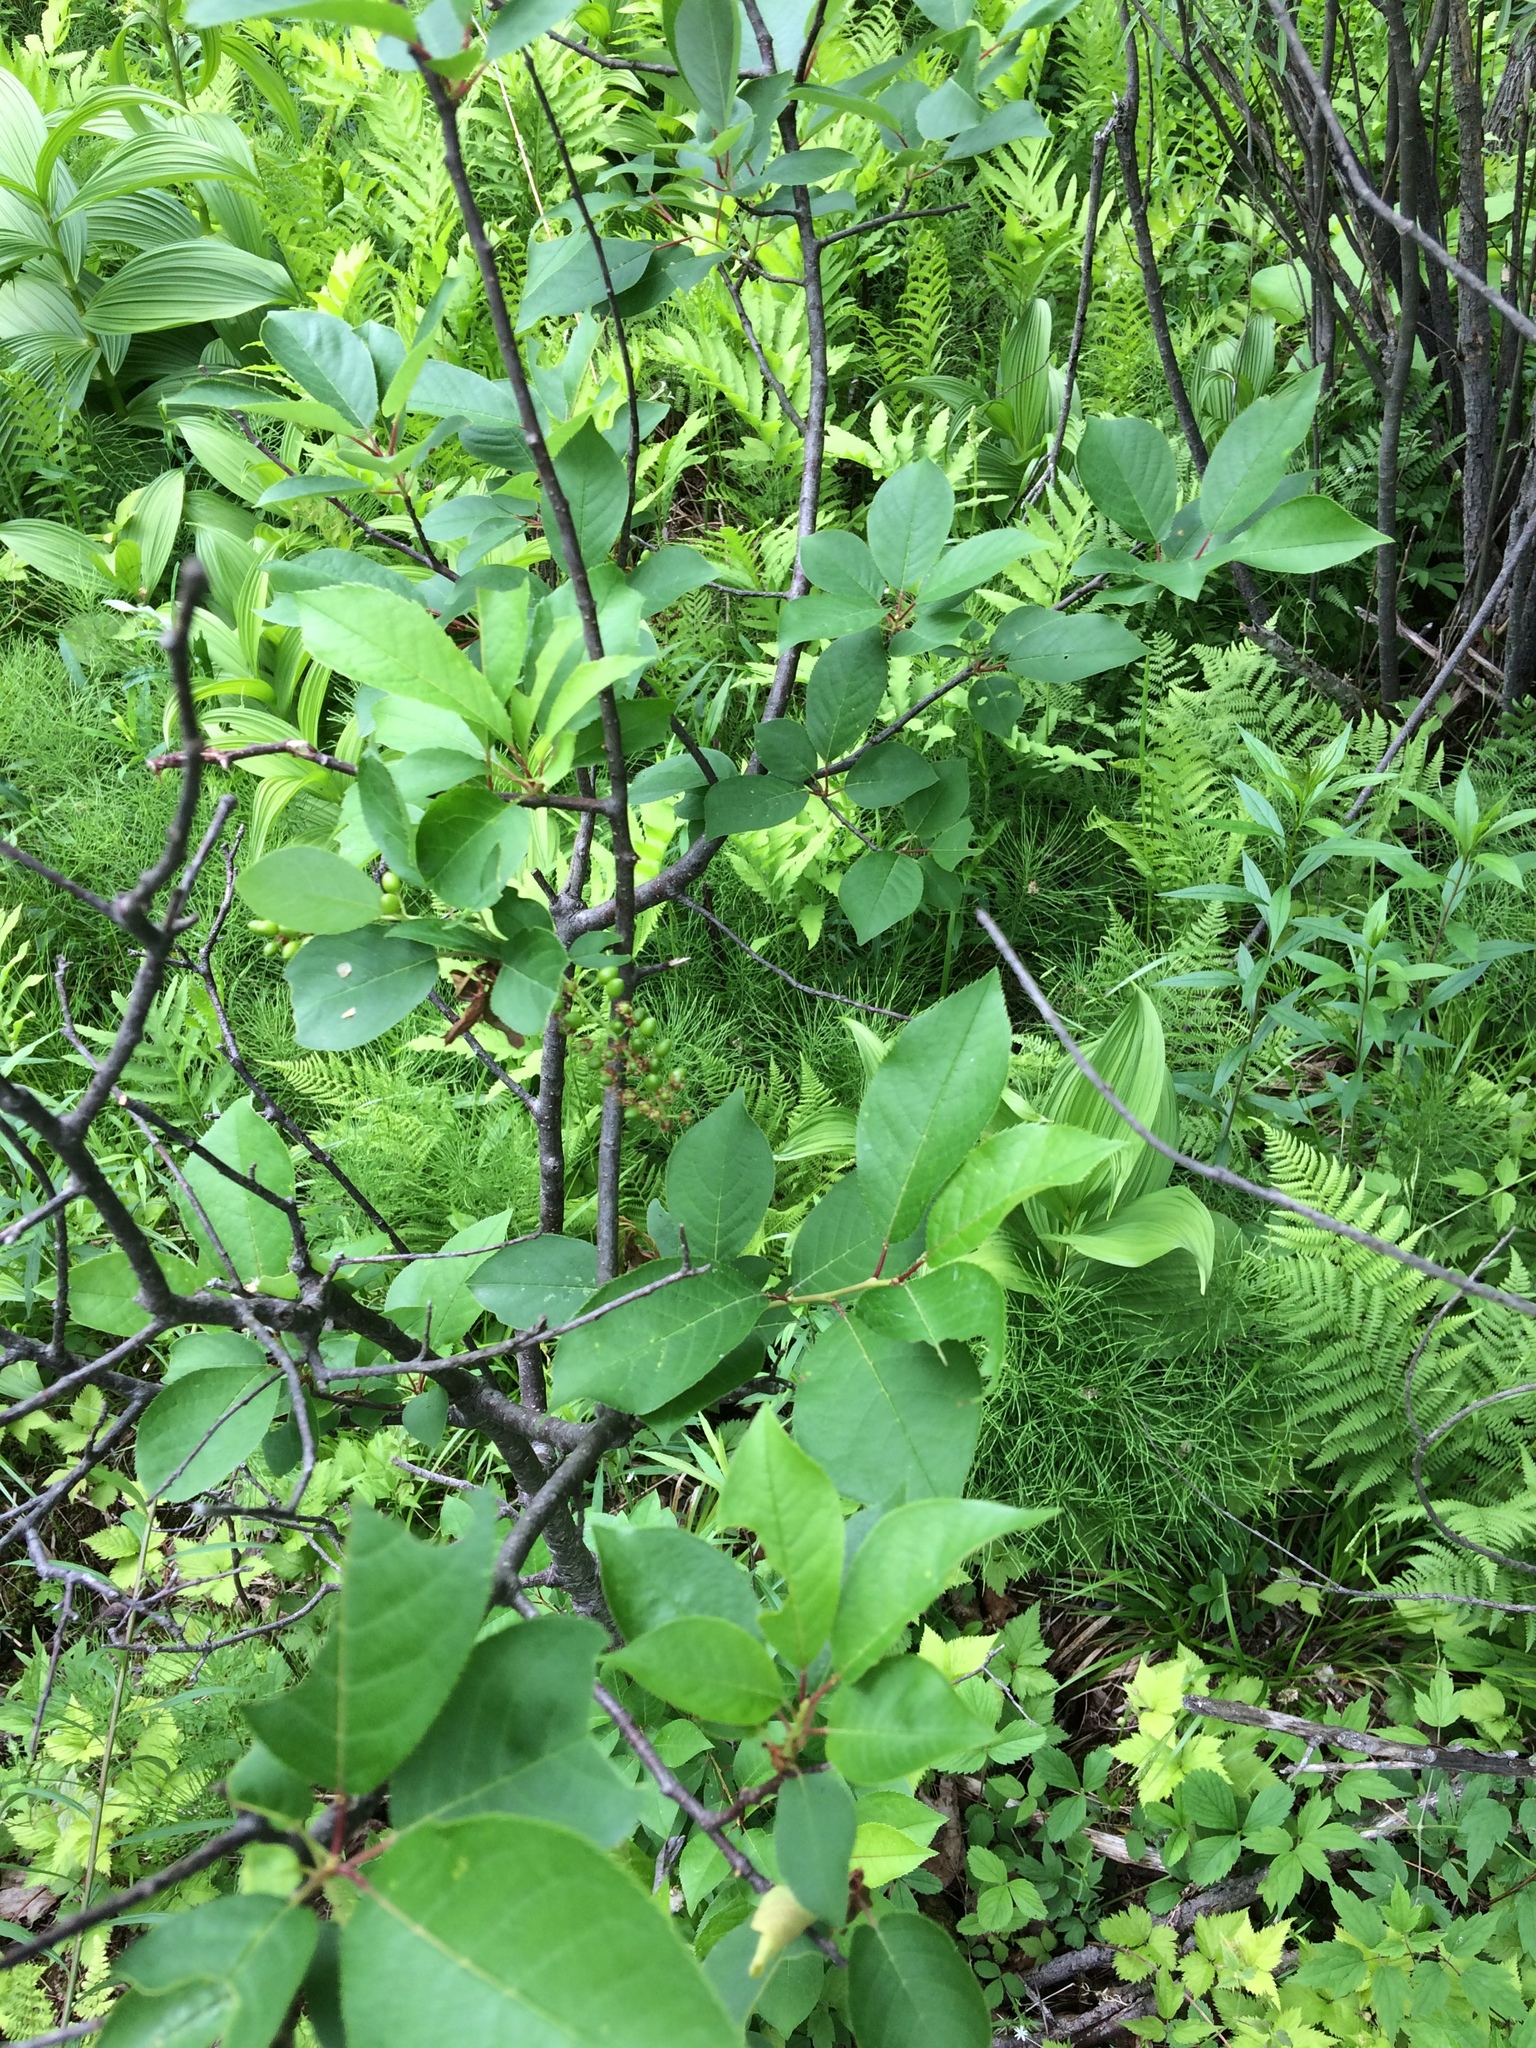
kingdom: Plantae
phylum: Tracheophyta
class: Magnoliopsida
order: Rosales
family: Rosaceae
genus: Prunus
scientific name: Prunus virginiana
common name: Chokecherry
